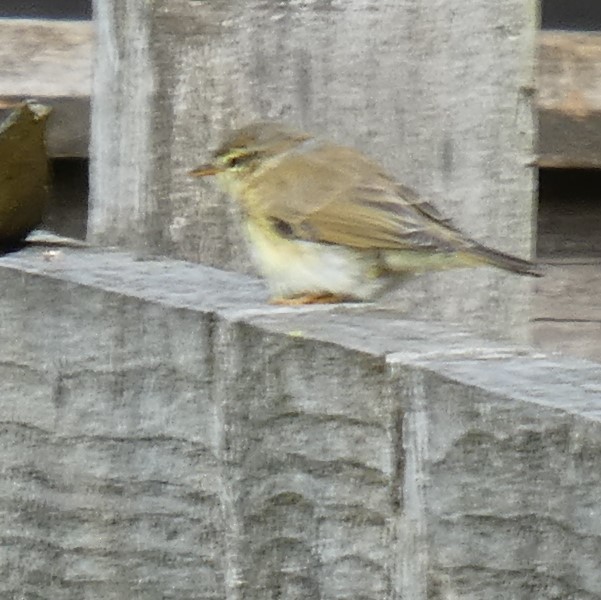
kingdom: Animalia
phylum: Chordata
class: Aves
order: Passeriformes
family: Phylloscopidae
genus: Phylloscopus
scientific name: Phylloscopus trochilus
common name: Willow warbler
